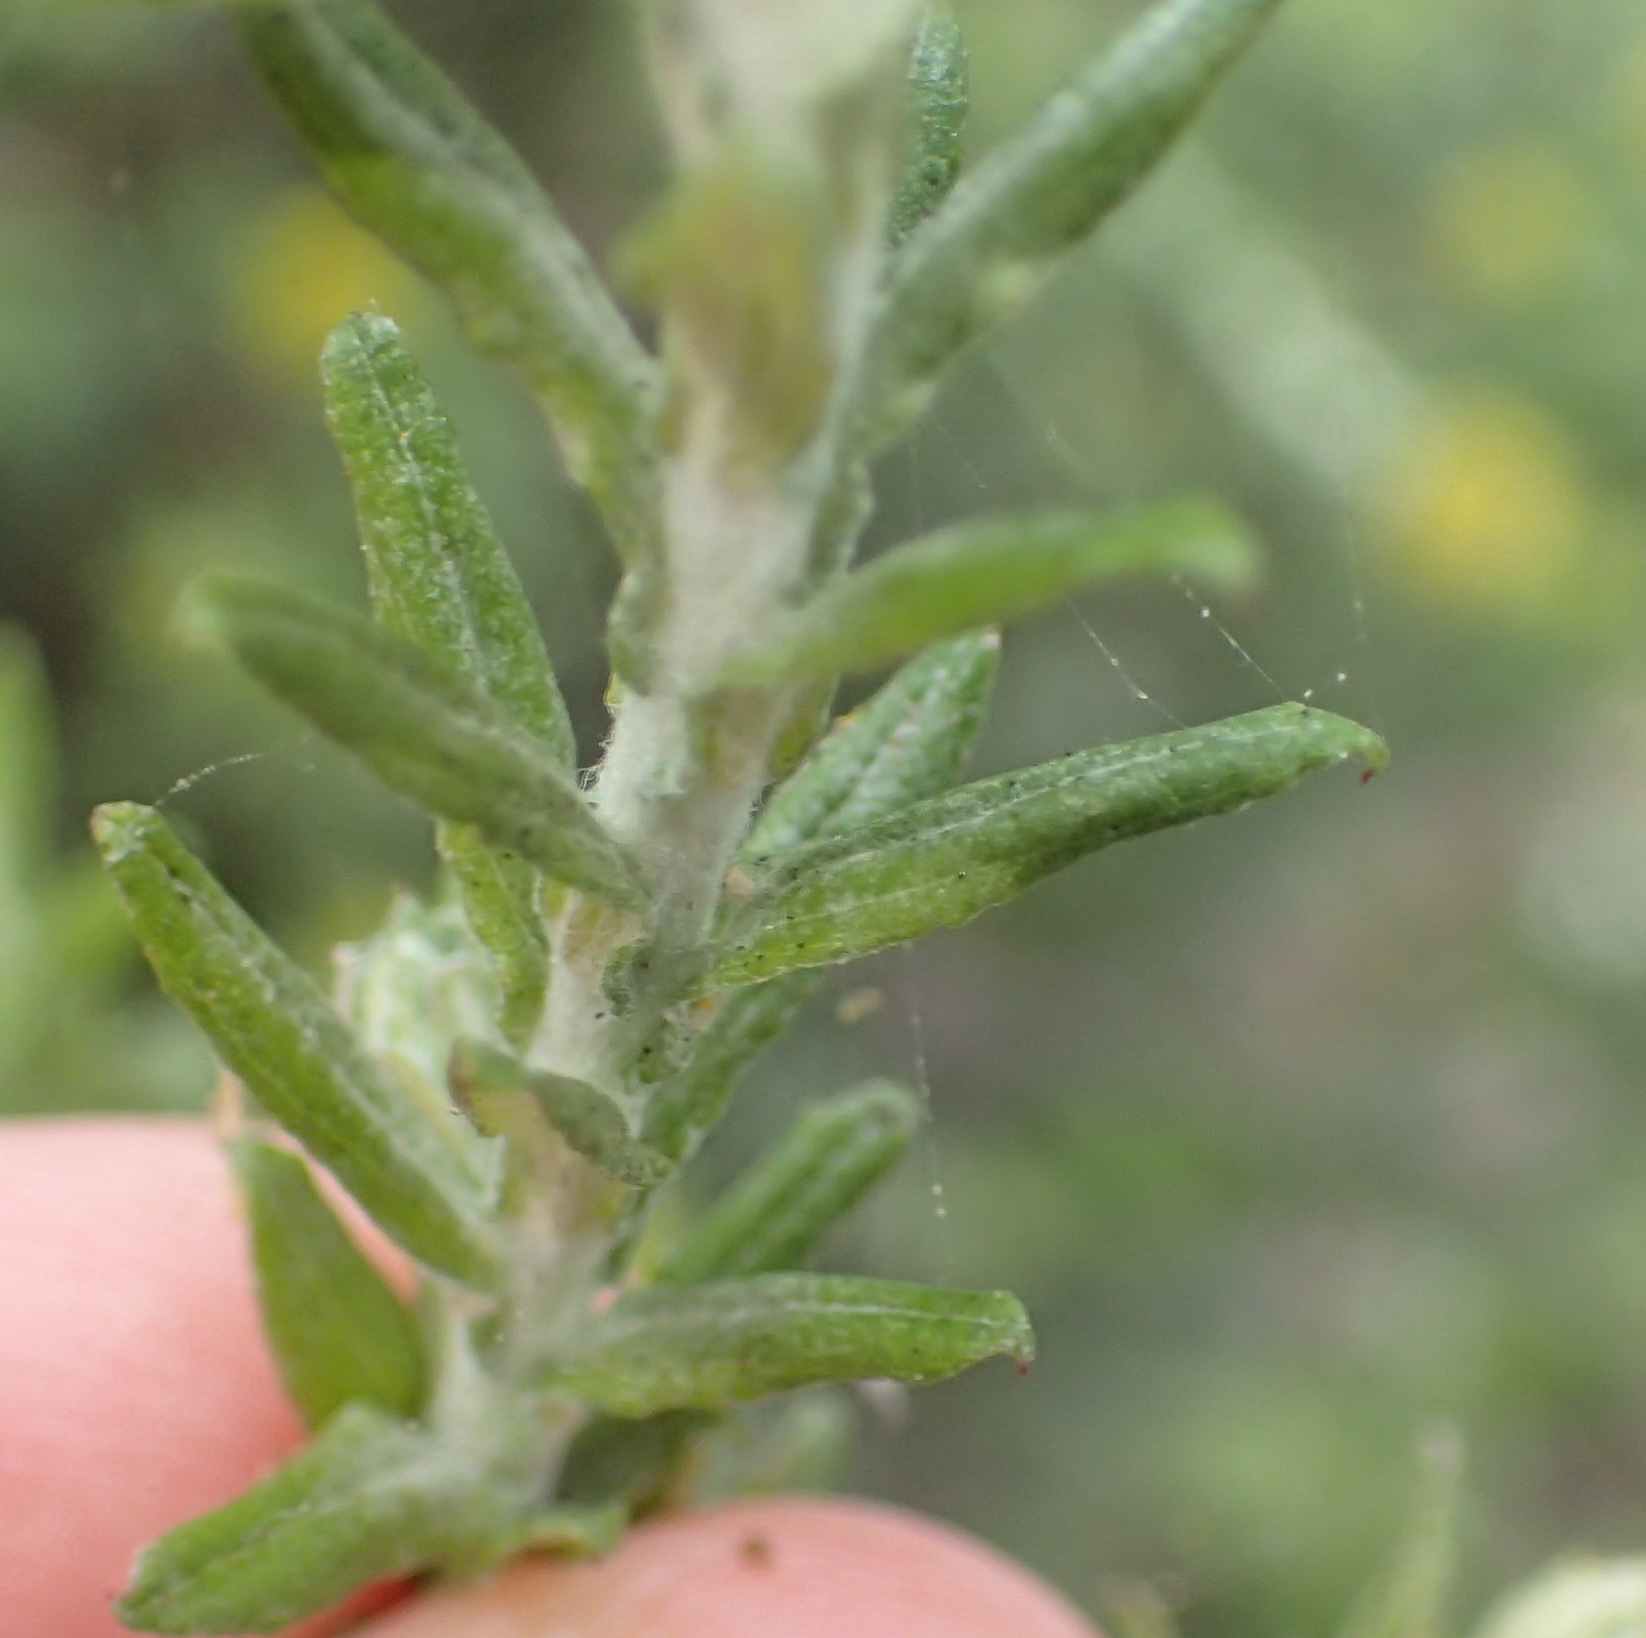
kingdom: Plantae
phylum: Tracheophyta
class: Magnoliopsida
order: Asterales
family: Asteraceae
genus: Helichrysum
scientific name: Helichrysum cymosum
